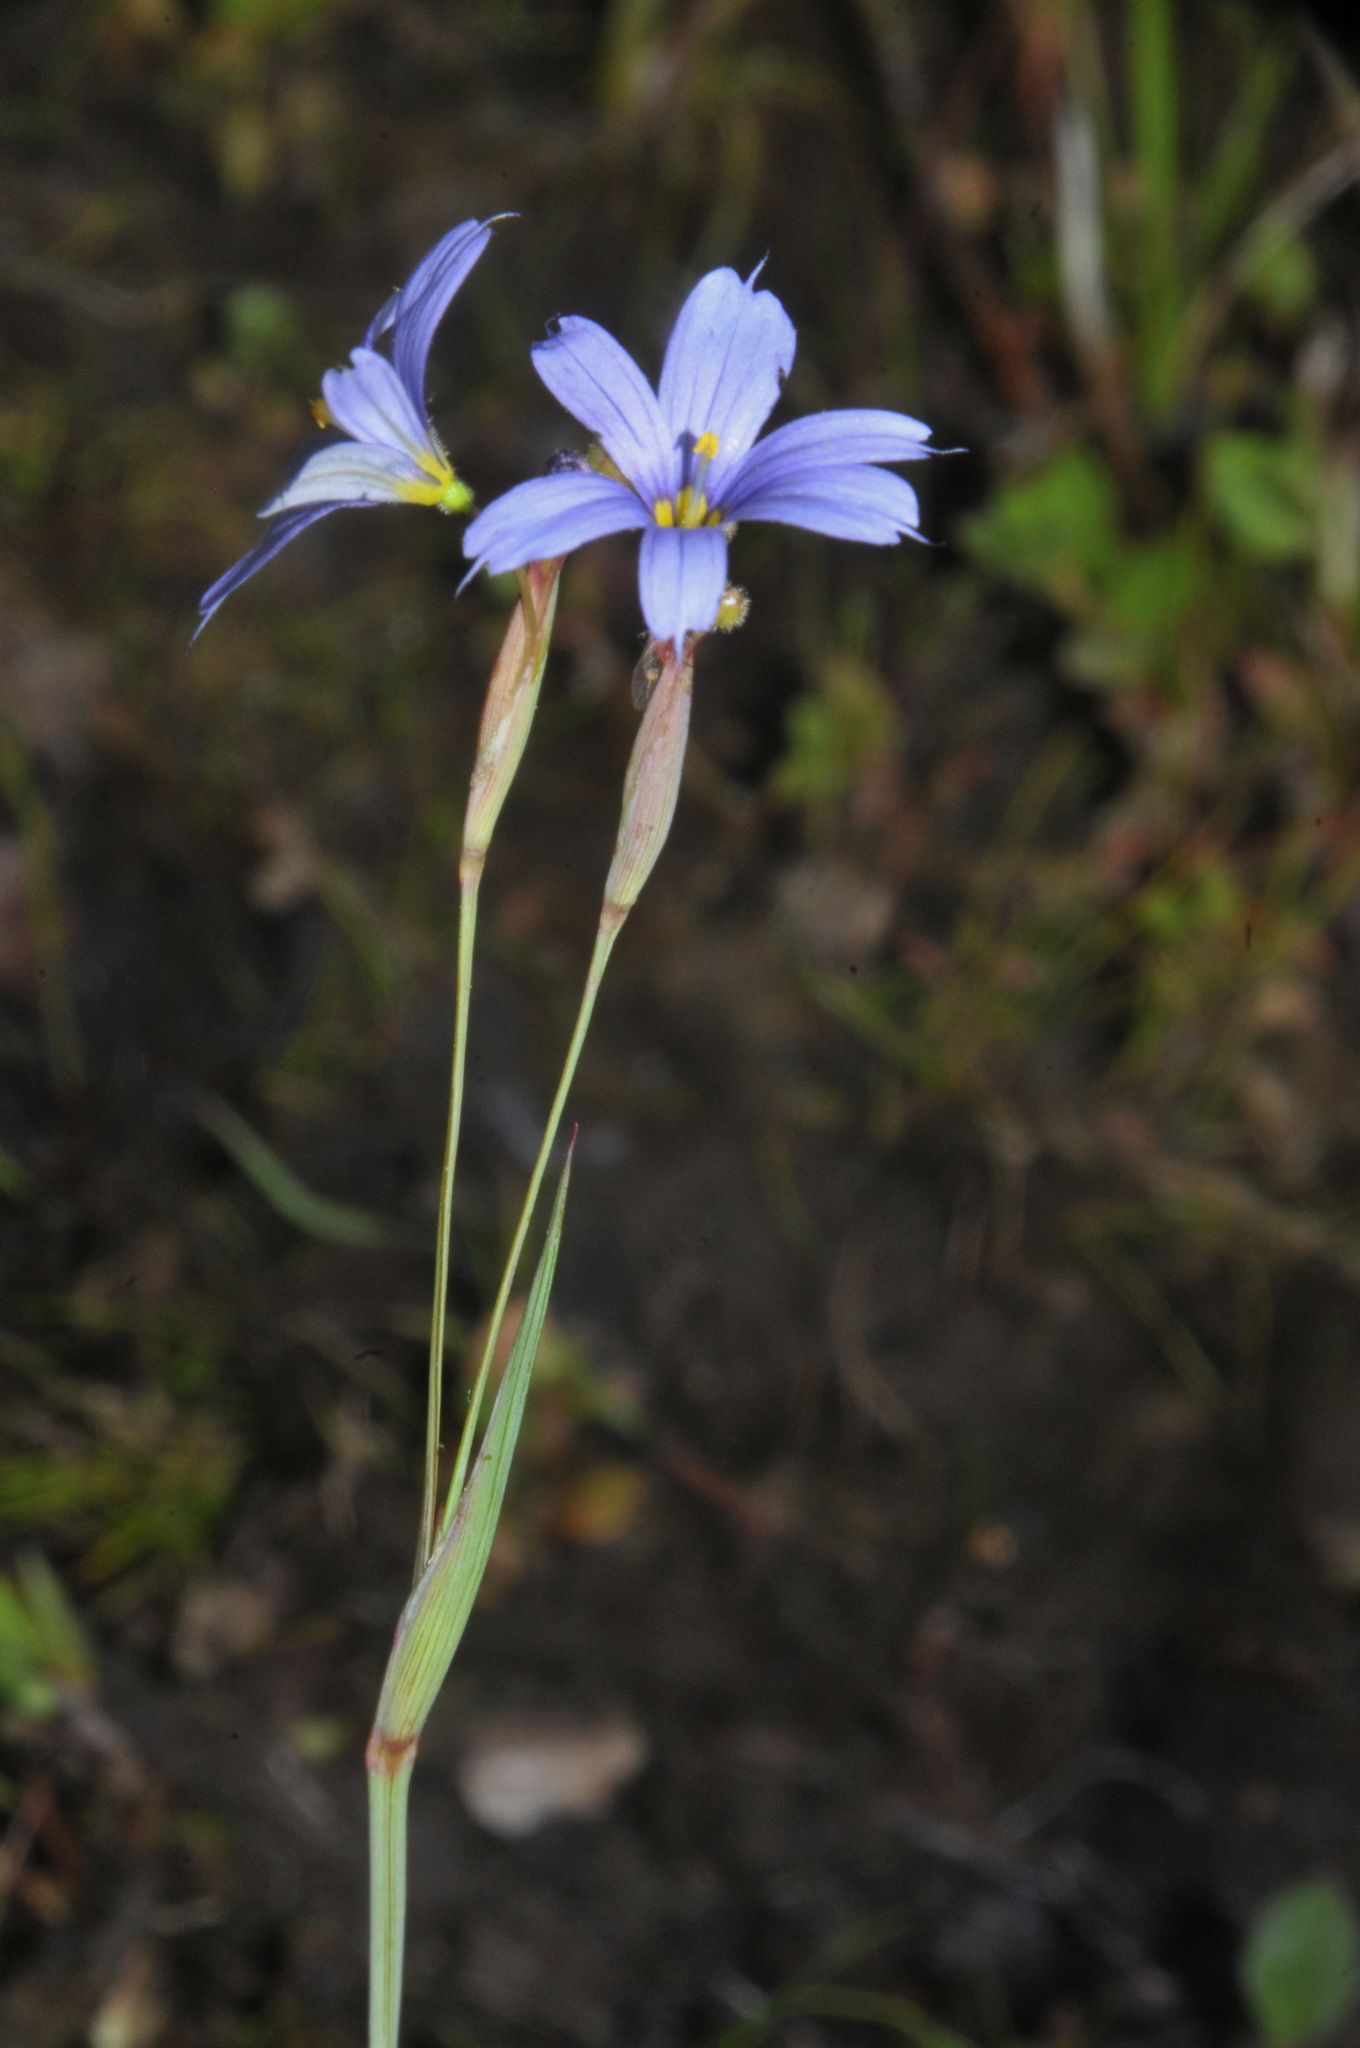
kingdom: Plantae
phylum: Tracheophyta
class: Liliopsida
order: Asparagales
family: Iridaceae
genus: Sisyrinchium
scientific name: Sisyrinchium angustifolium
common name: Narrow-leaf blue-eyed-grass
